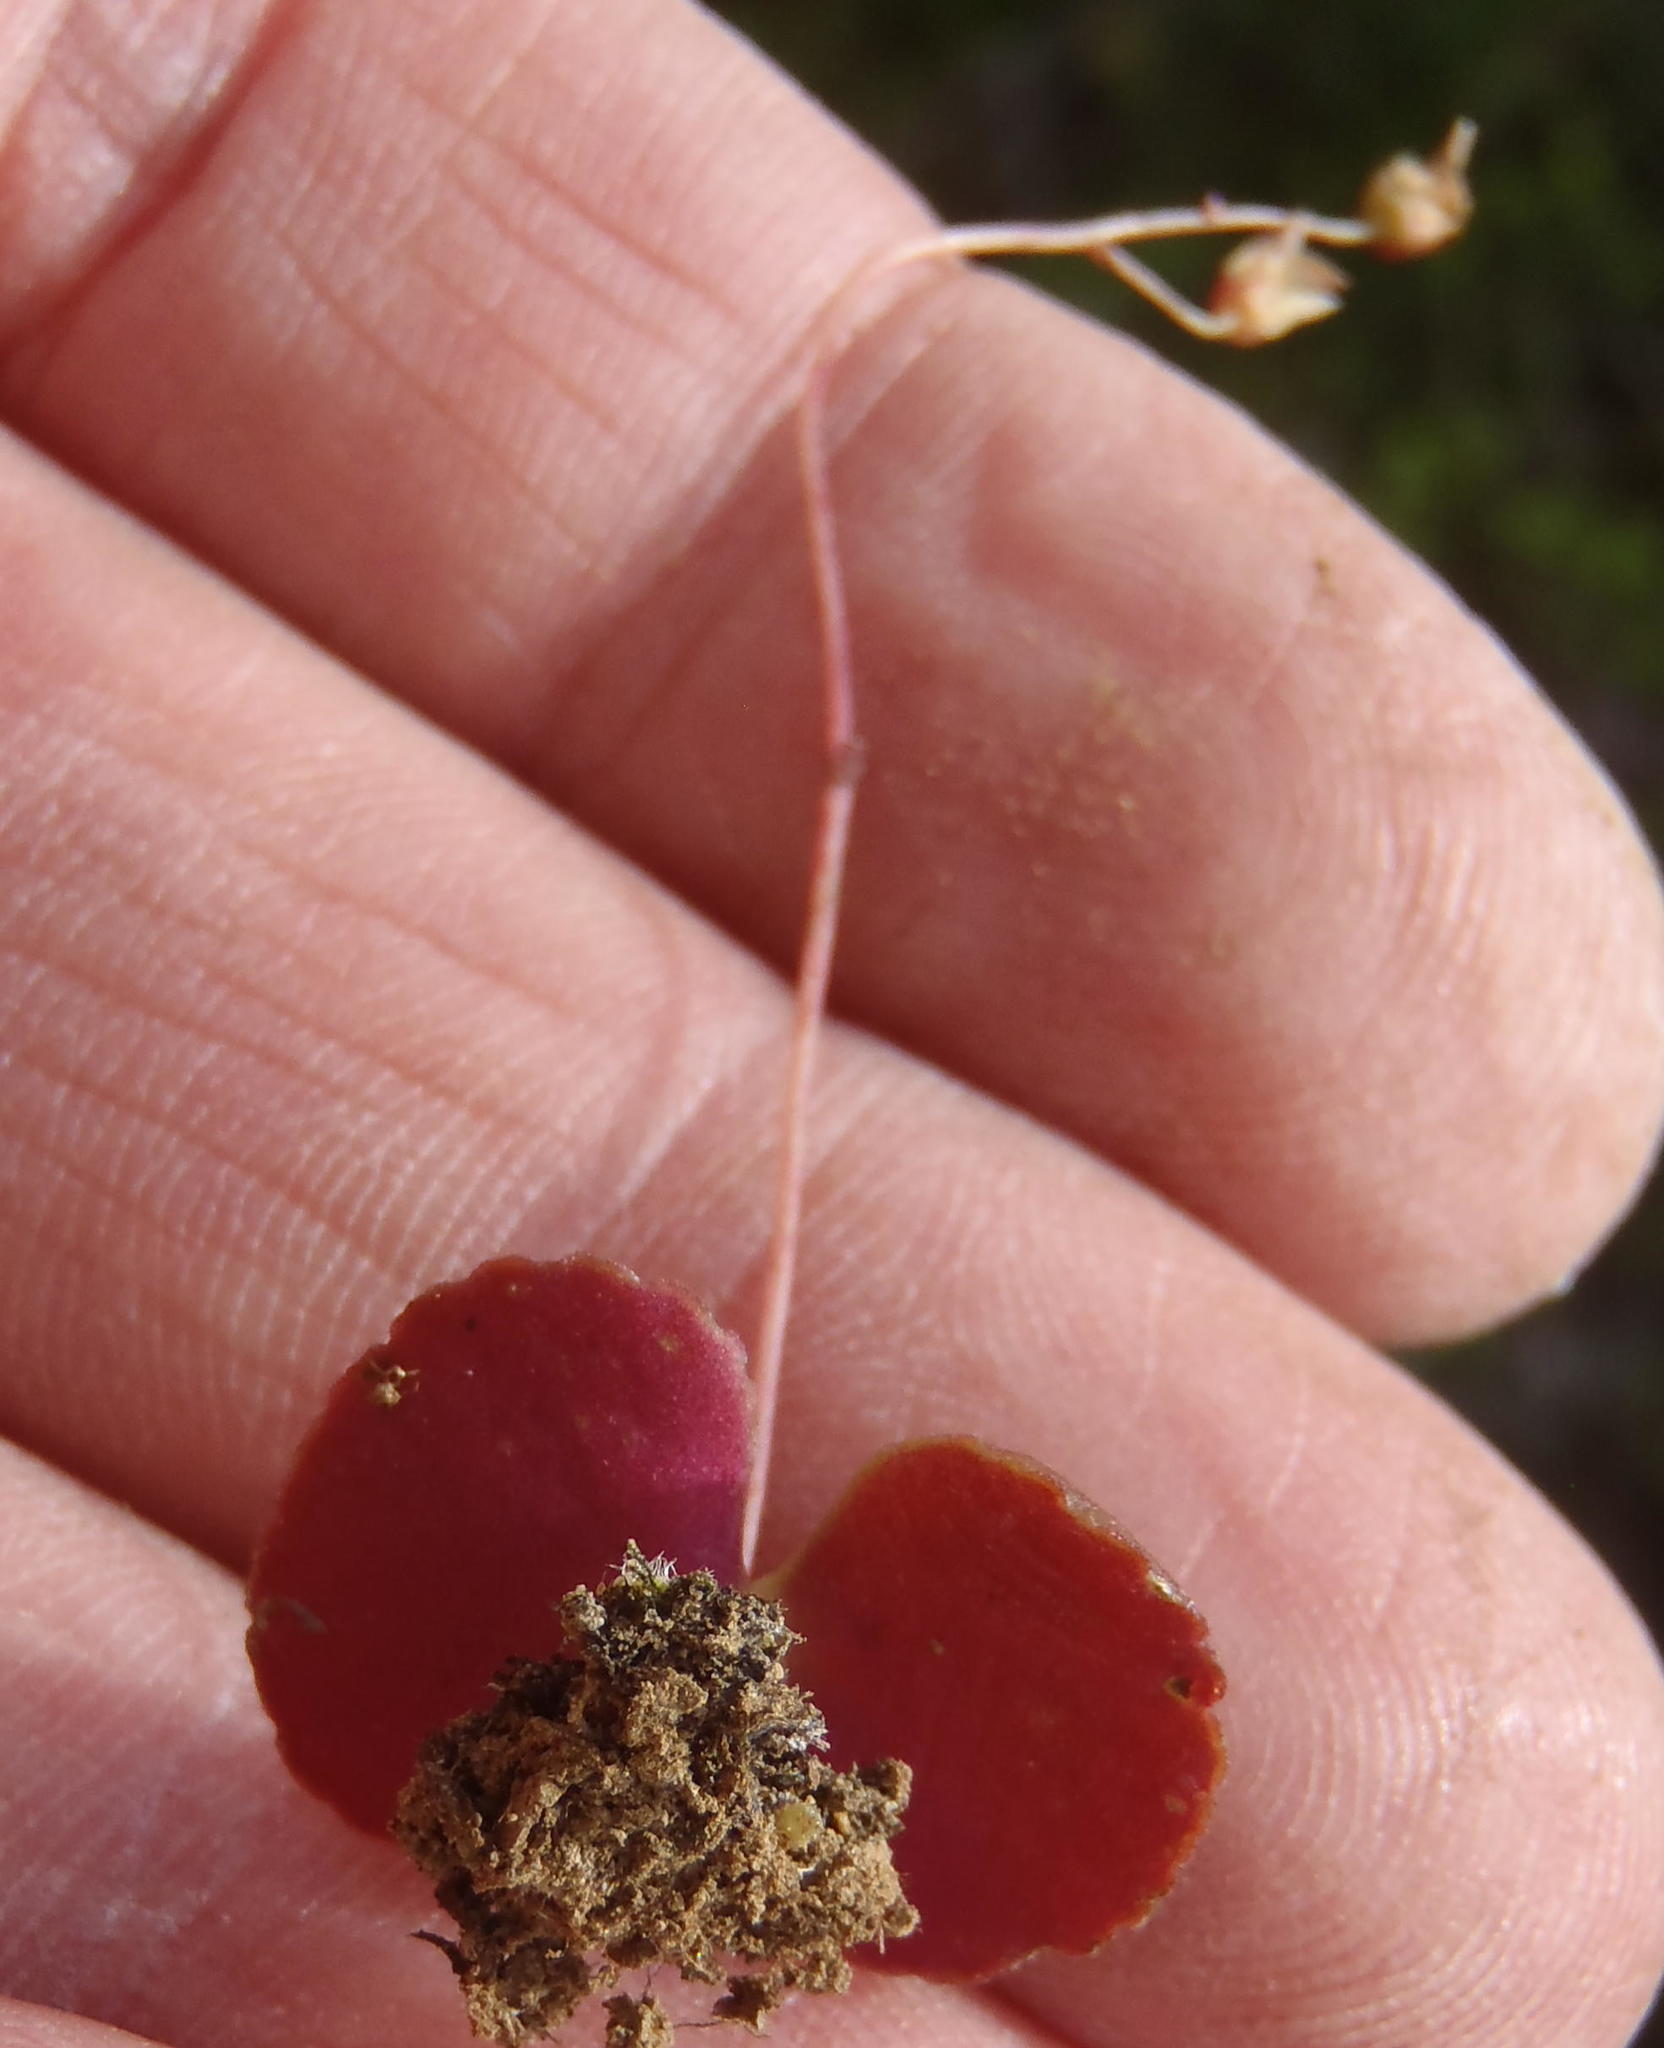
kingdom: Plantae
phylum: Tracheophyta
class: Magnoliopsida
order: Saxifragales
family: Crassulaceae
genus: Crassula
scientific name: Crassula umbella
